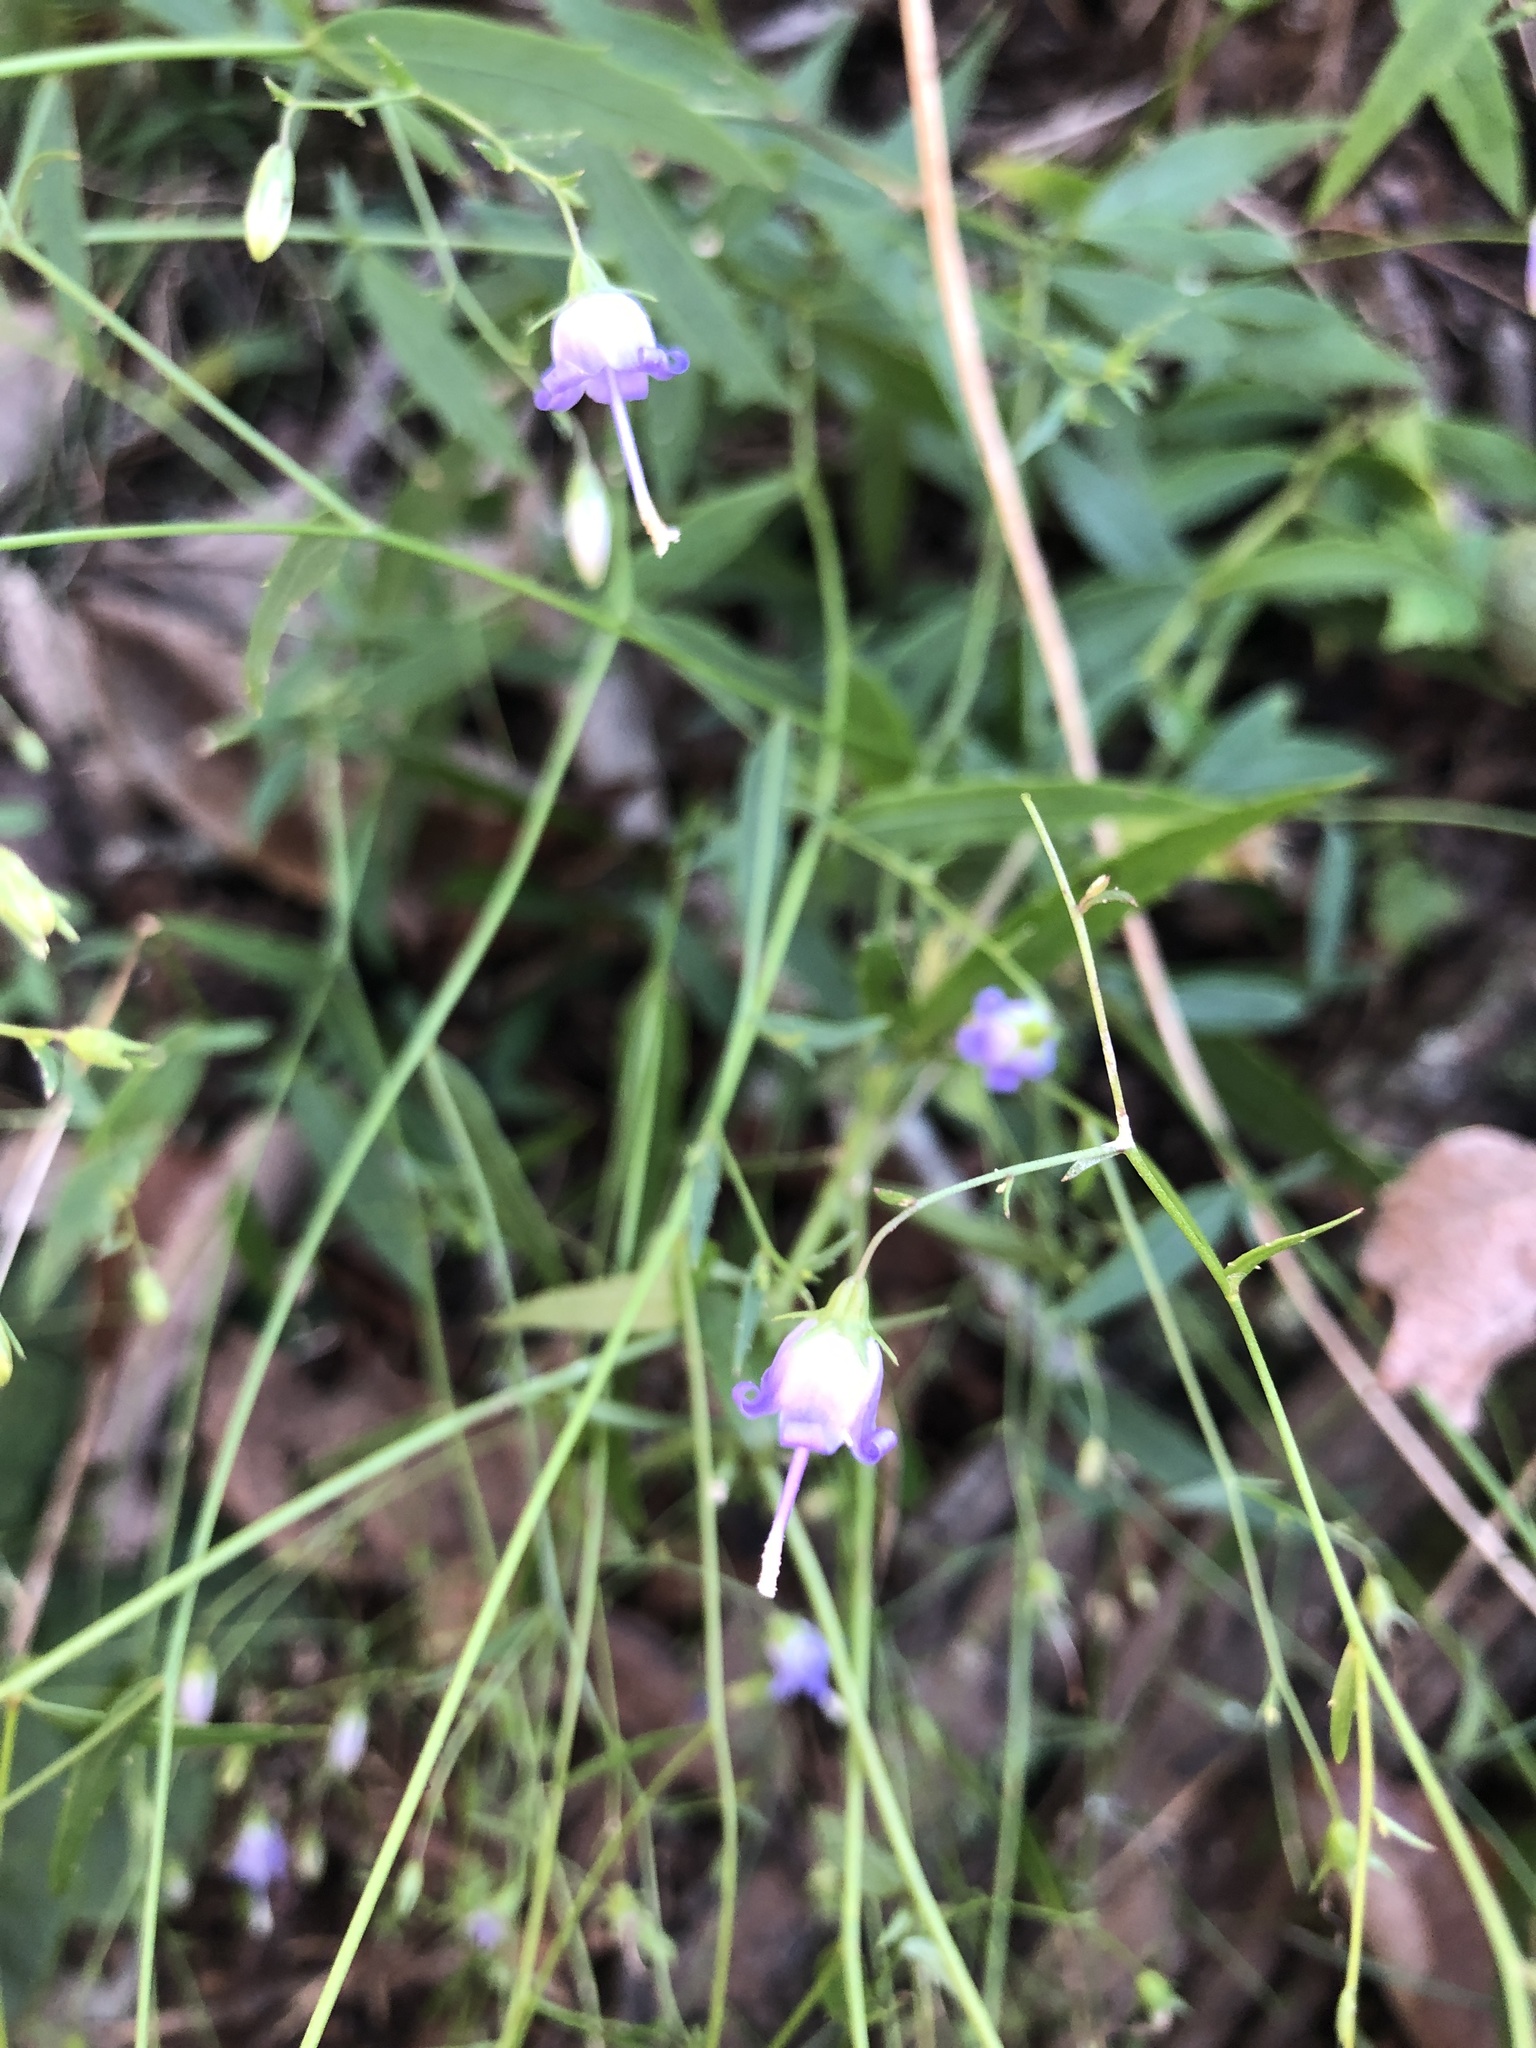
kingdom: Plantae
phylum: Tracheophyta
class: Magnoliopsida
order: Asterales
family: Campanulaceae
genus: Campanula
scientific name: Campanula divaricata
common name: Appalachian bellflower
